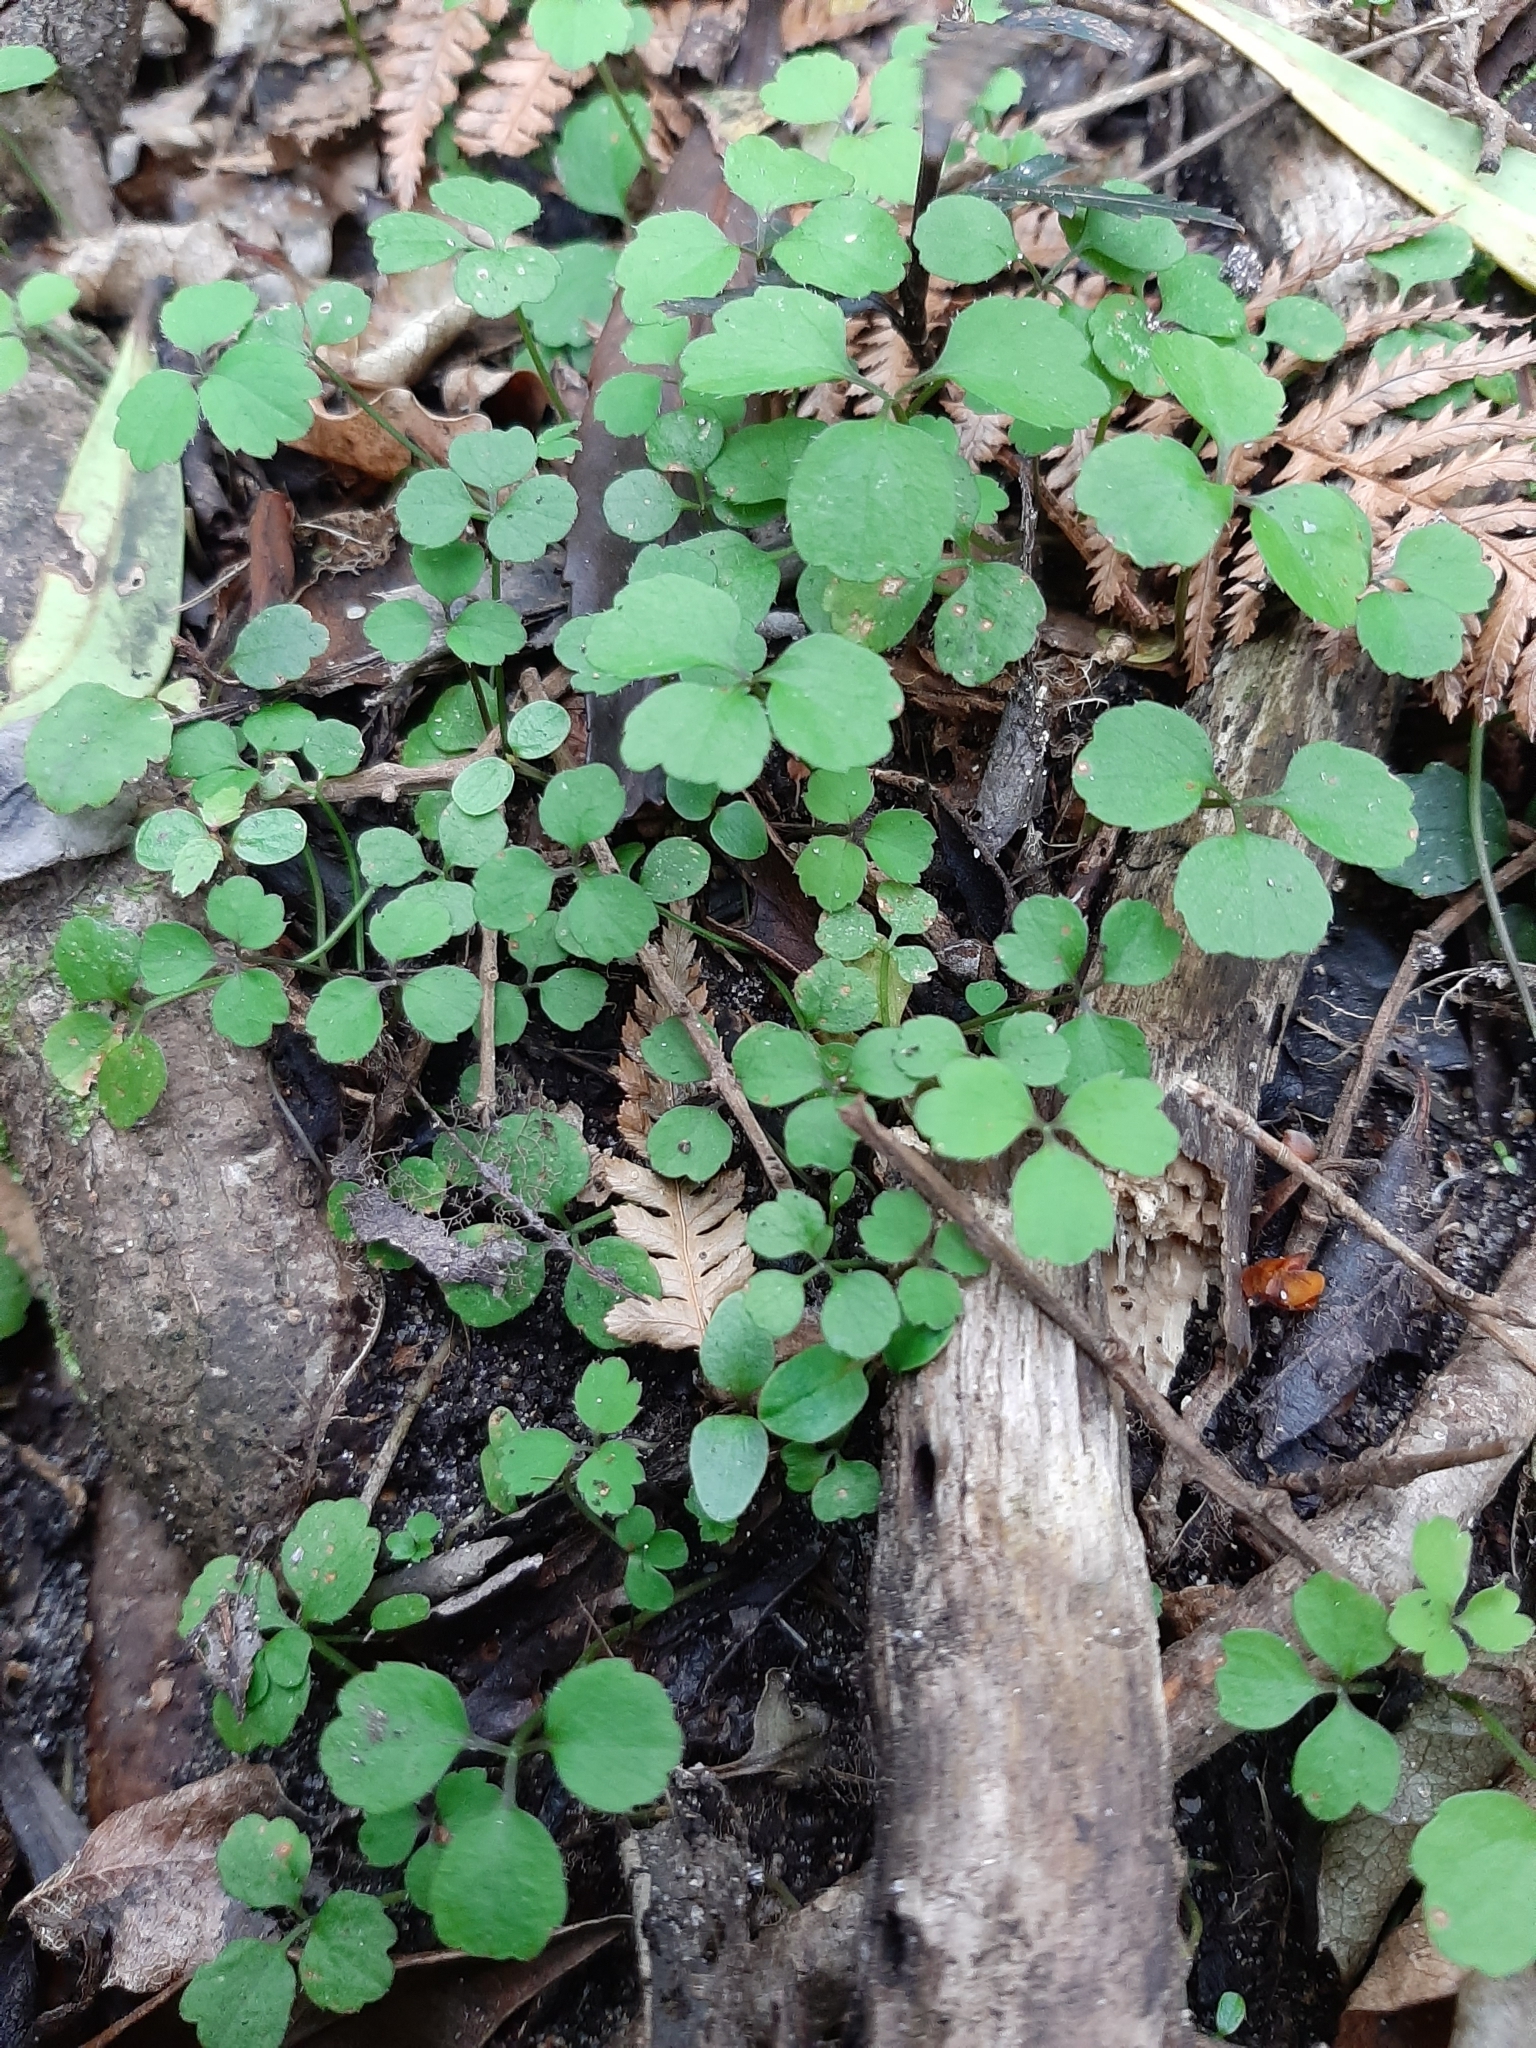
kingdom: Plantae
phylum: Tracheophyta
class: Magnoliopsida
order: Apiales
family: Apiaceae
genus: Azorella
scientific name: Azorella hookeri
